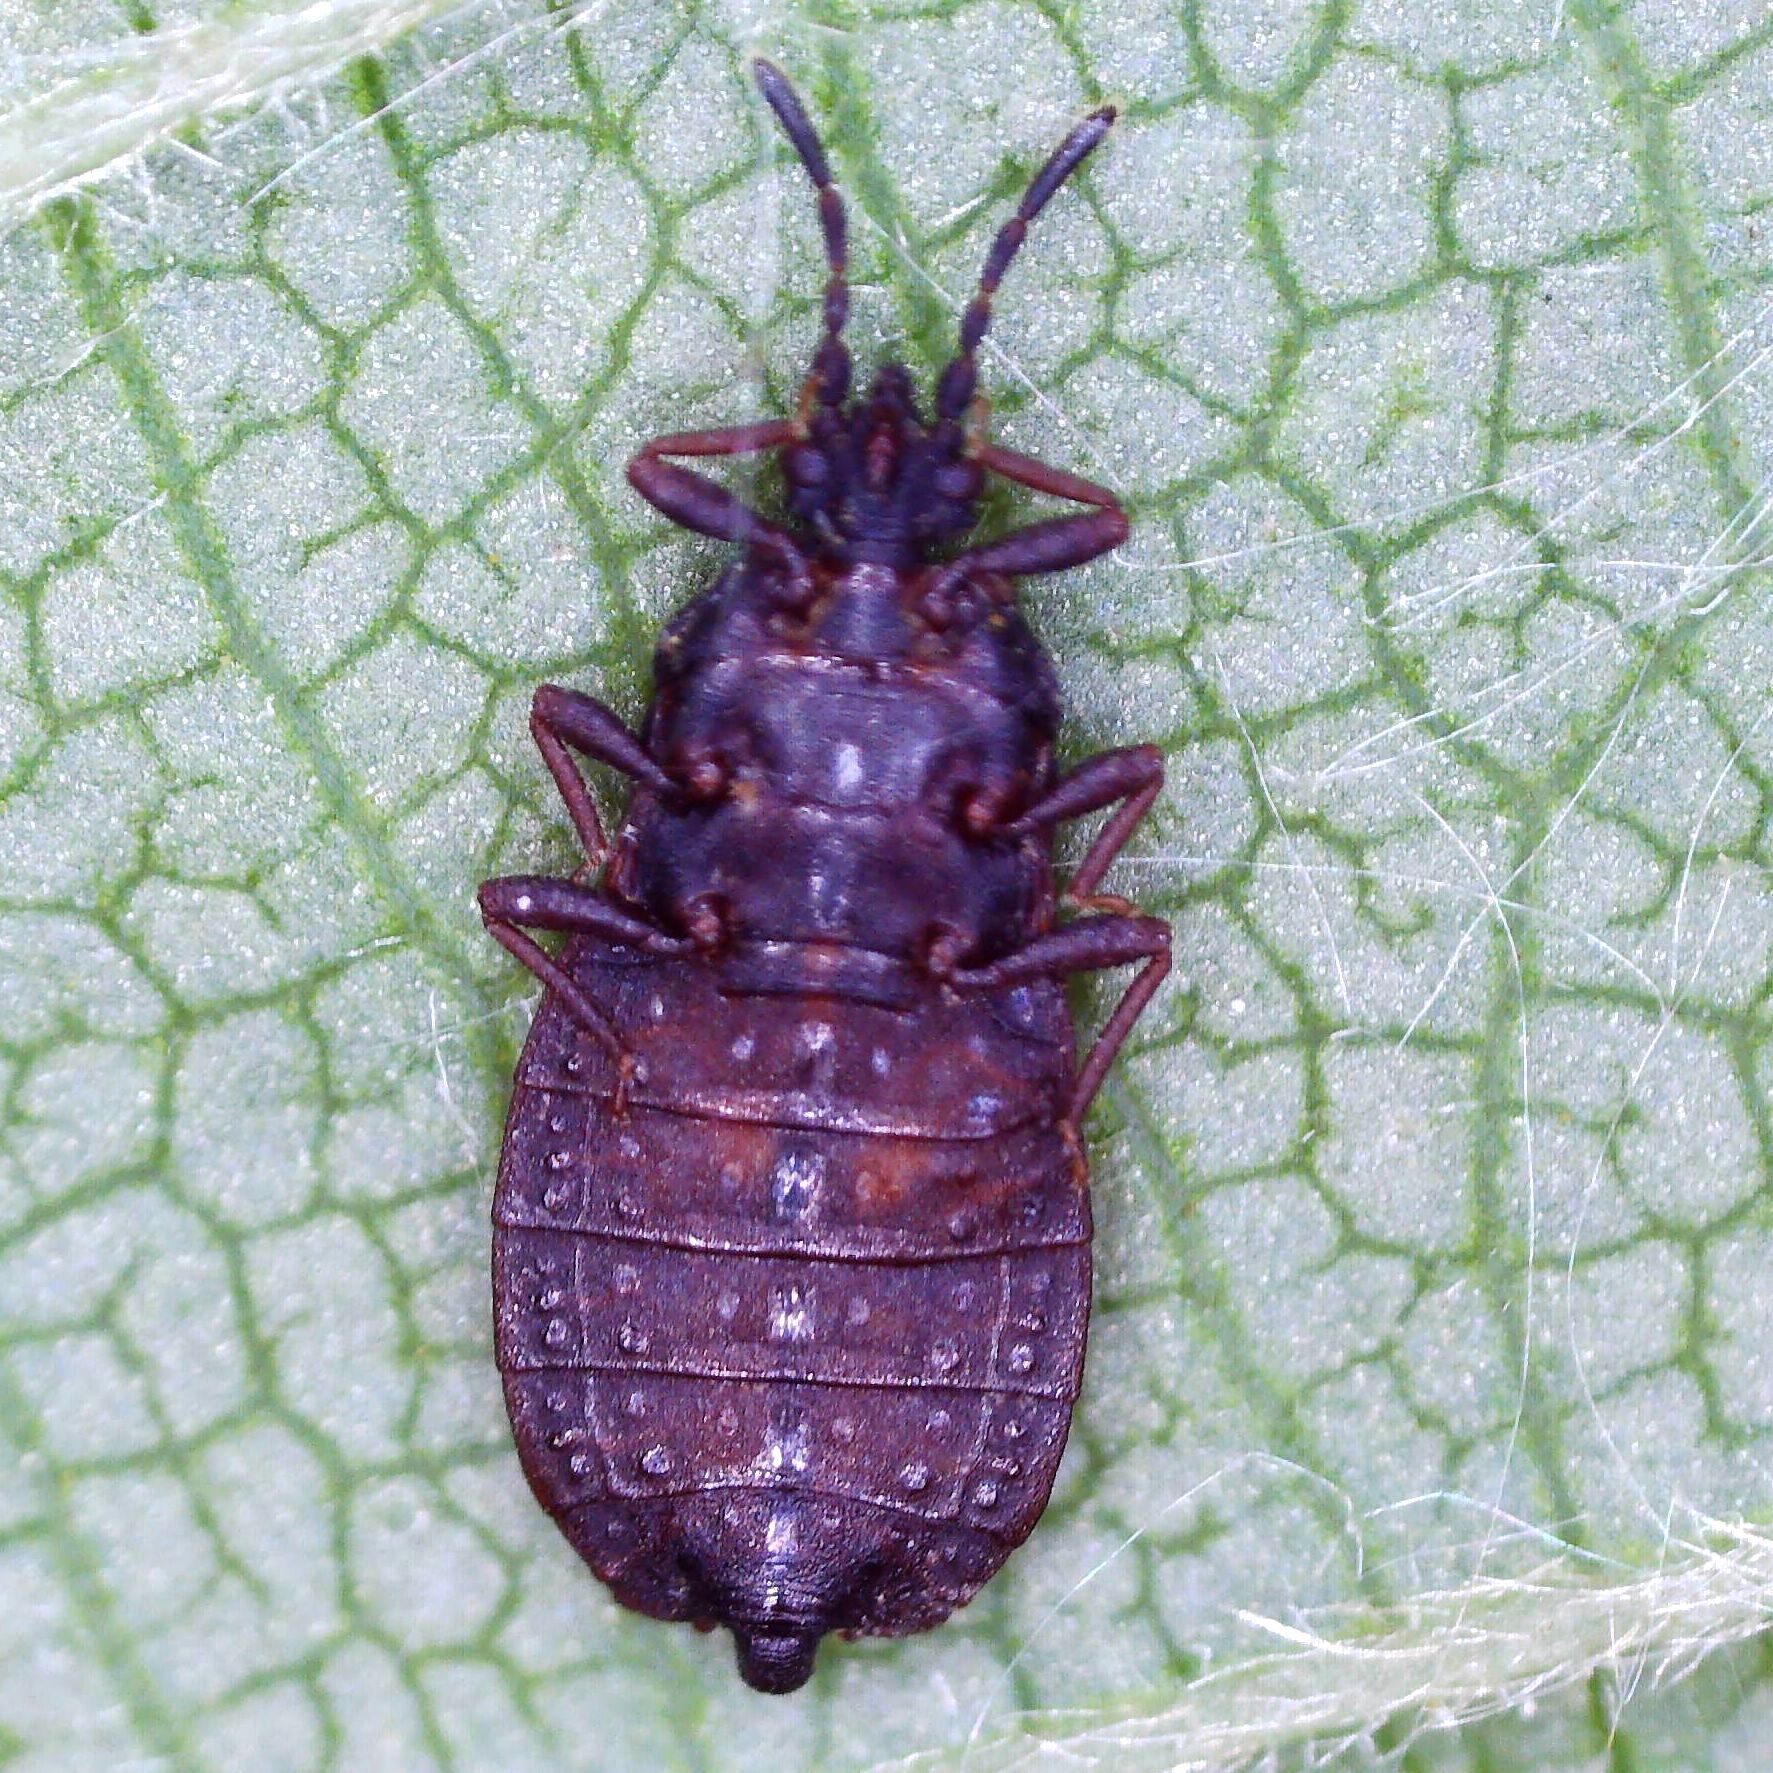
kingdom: Animalia
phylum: Arthropoda
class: Insecta
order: Hemiptera
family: Aradidae
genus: Aneurus
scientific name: Aneurus avenius
